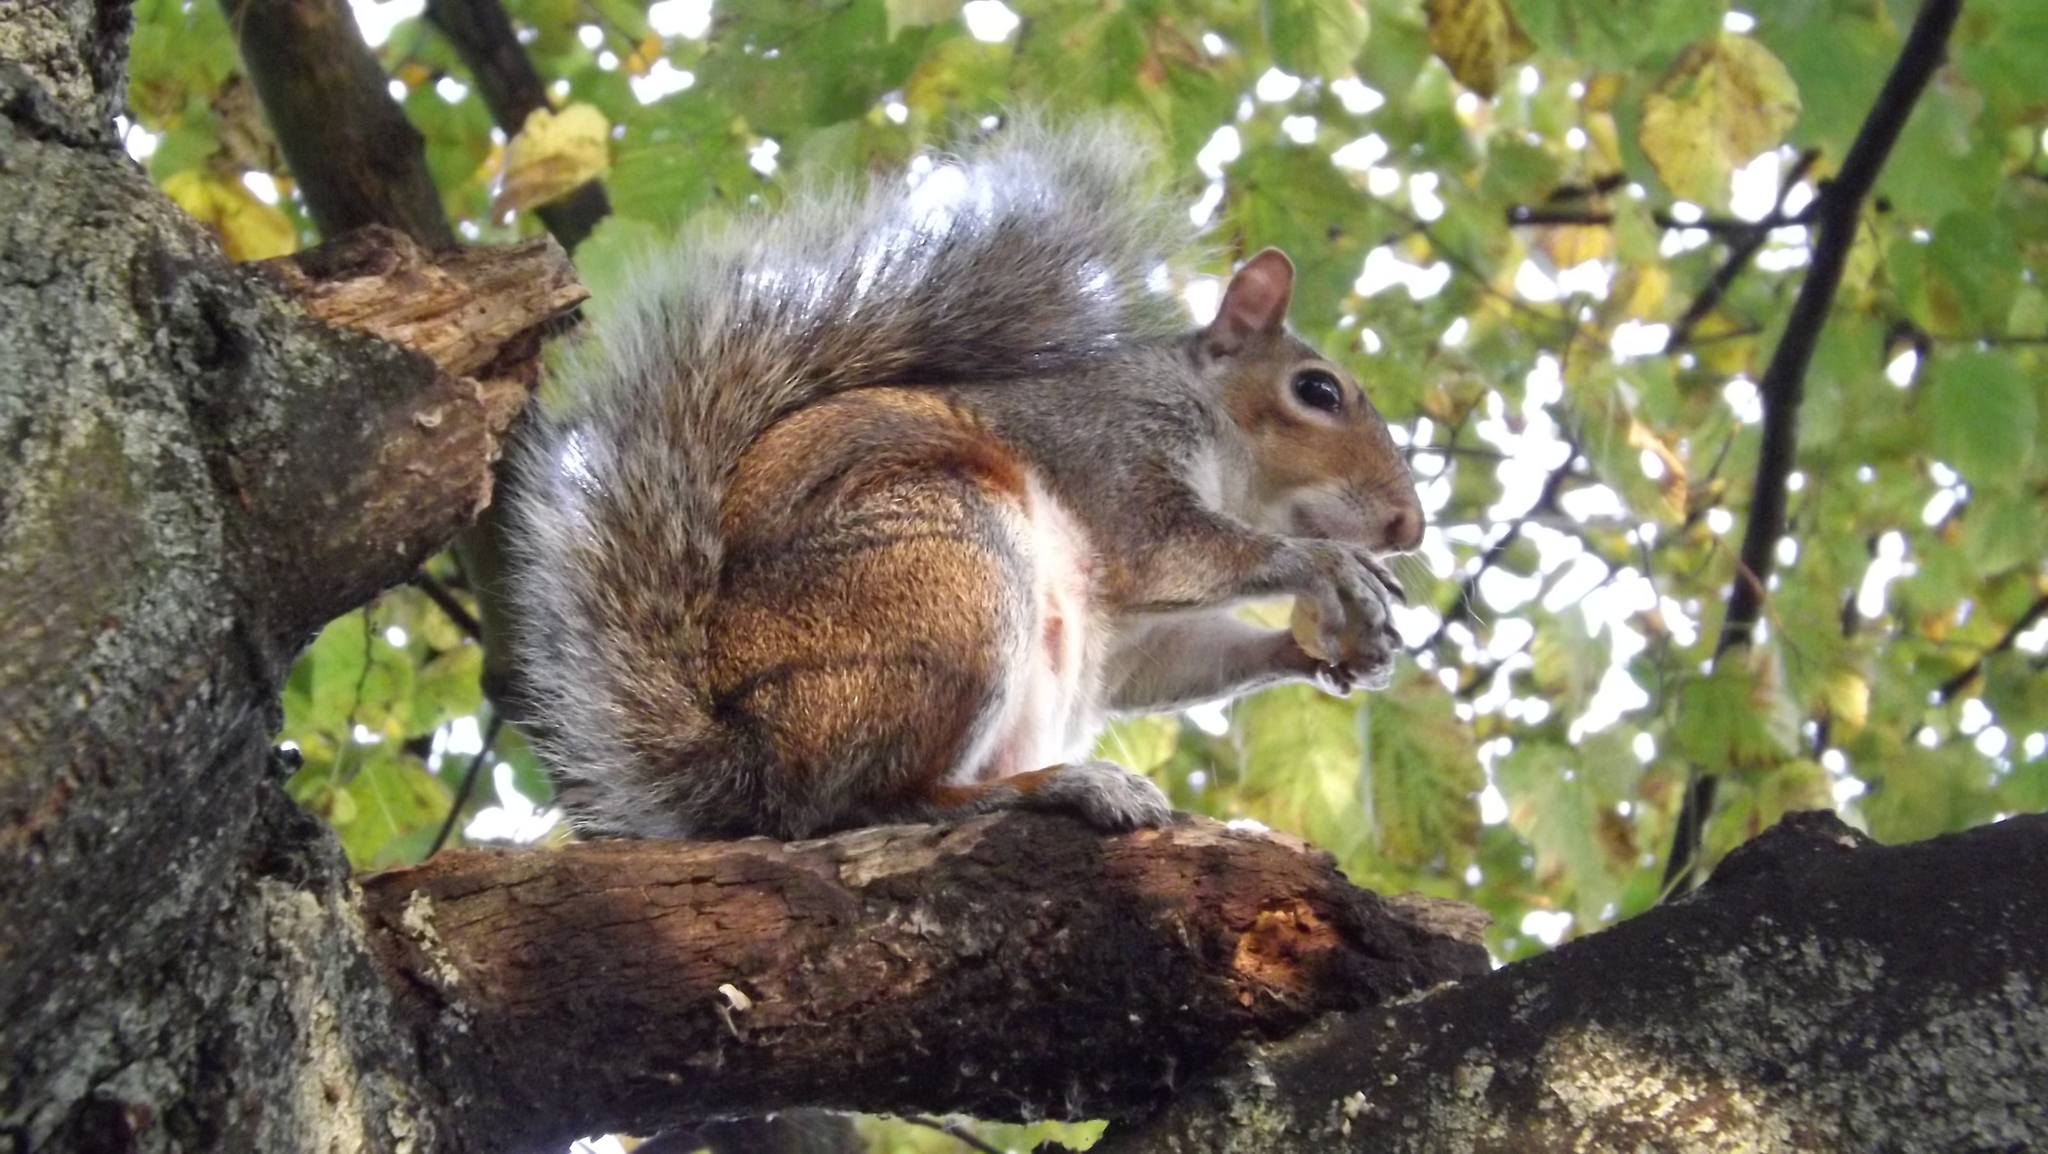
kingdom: Animalia
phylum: Chordata
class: Mammalia
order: Rodentia
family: Sciuridae
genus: Sciurus
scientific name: Sciurus carolinensis
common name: Eastern gray squirrel
